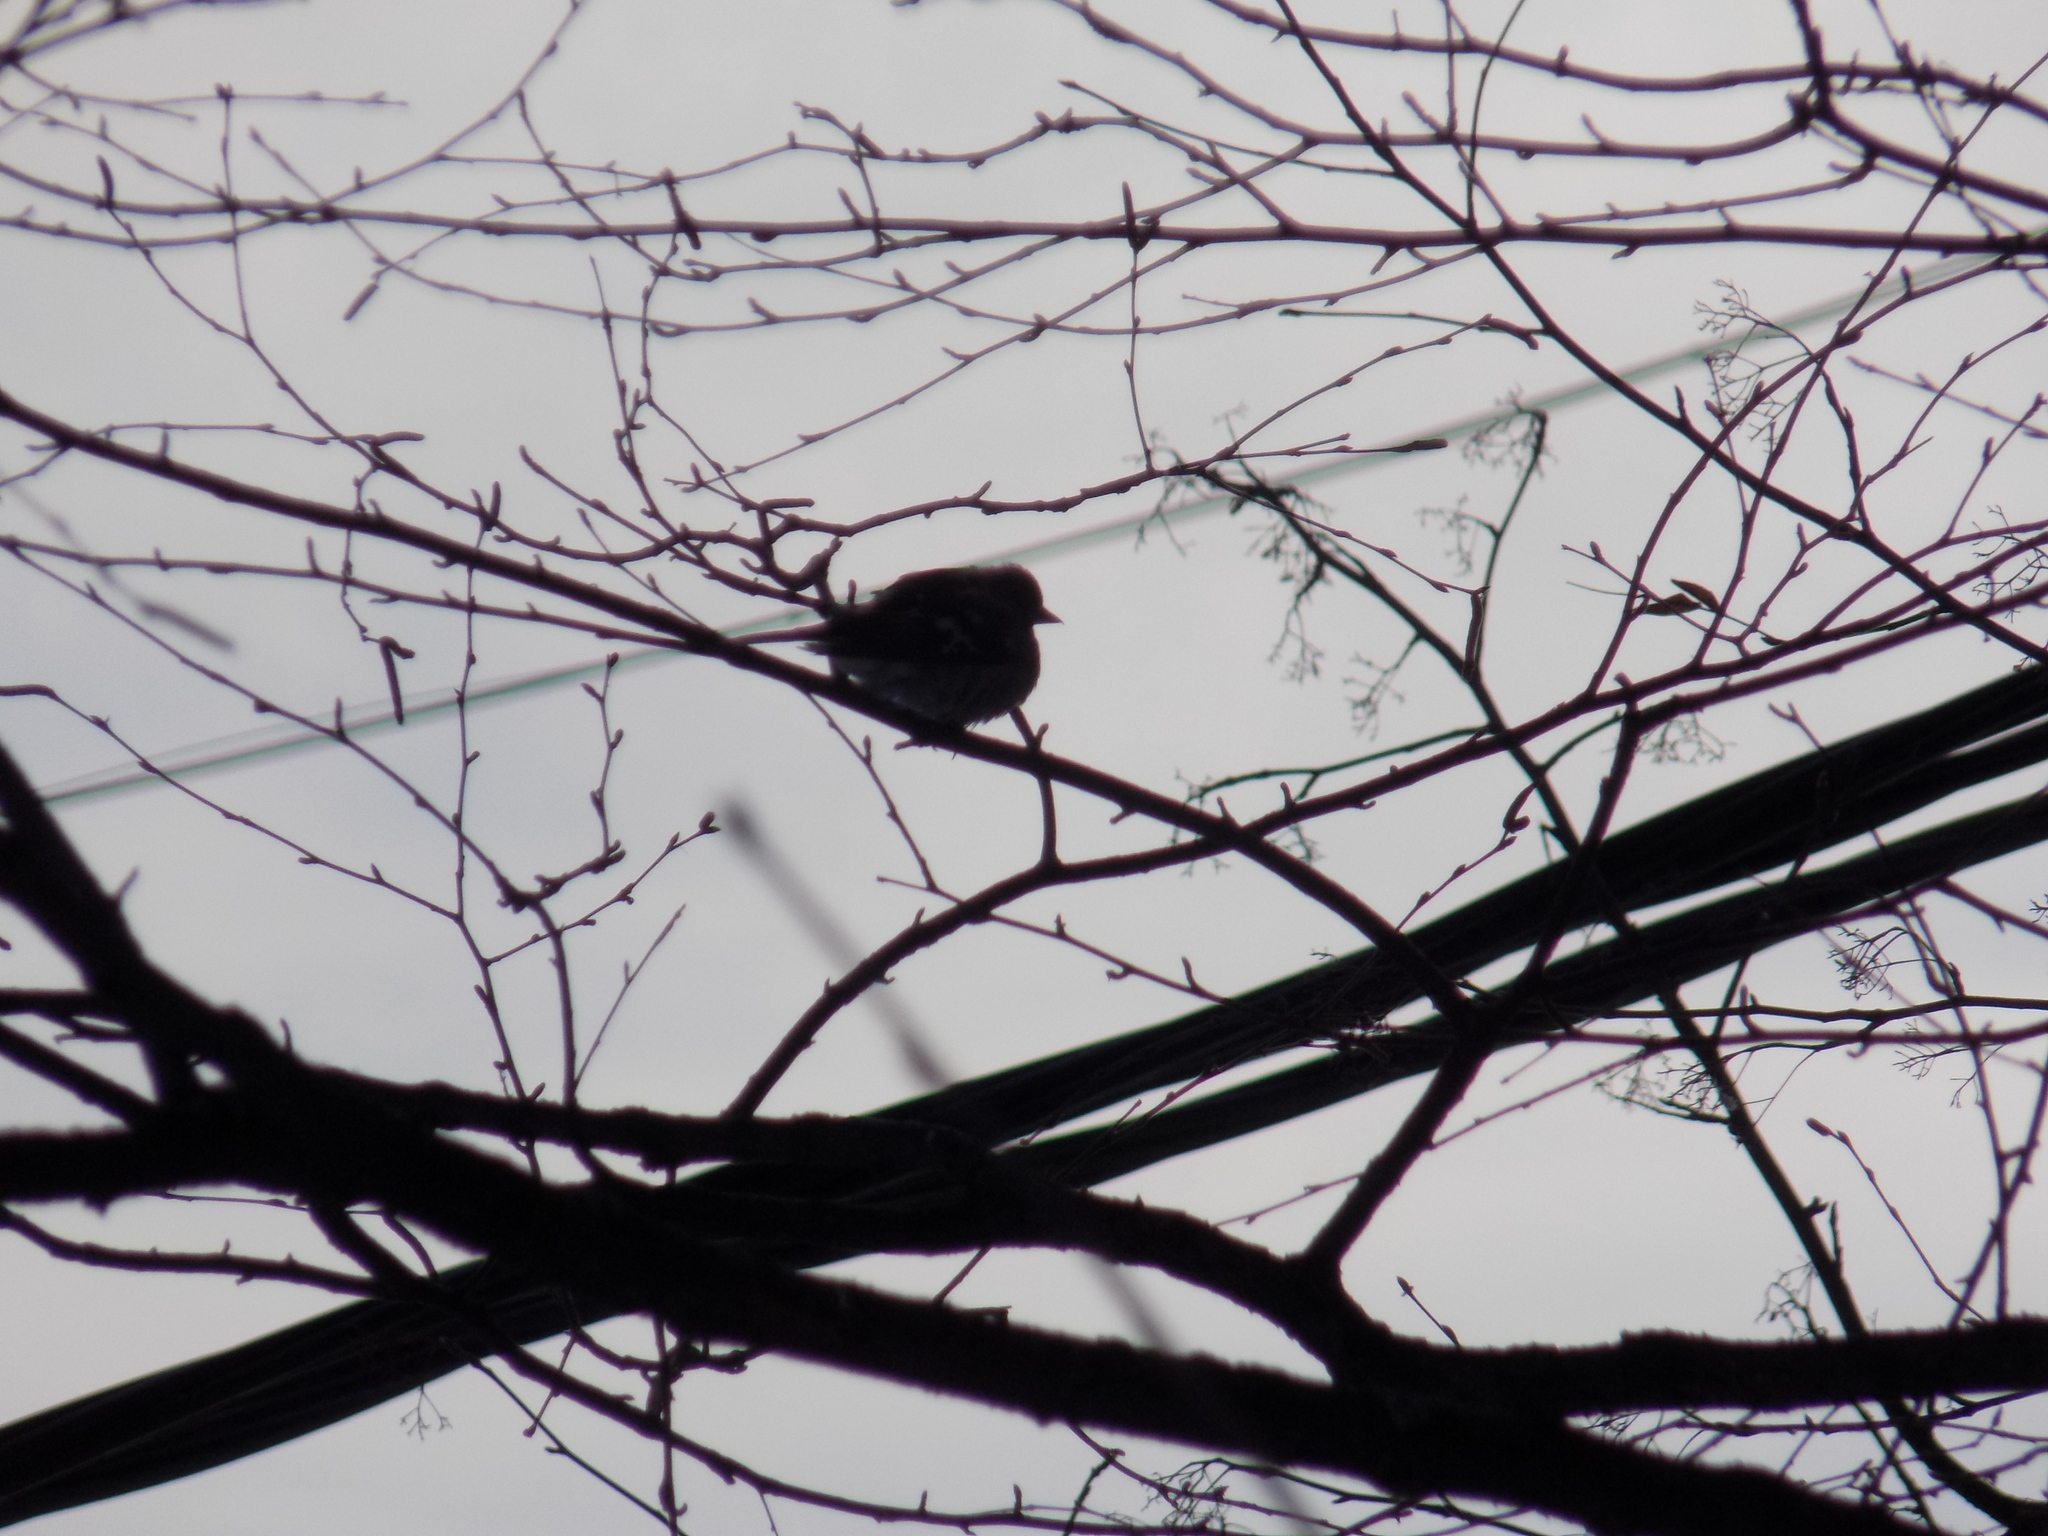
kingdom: Animalia
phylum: Chordata
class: Aves
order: Passeriformes
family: Fringillidae
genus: Fringilla
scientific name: Fringilla coelebs
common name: Common chaffinch
